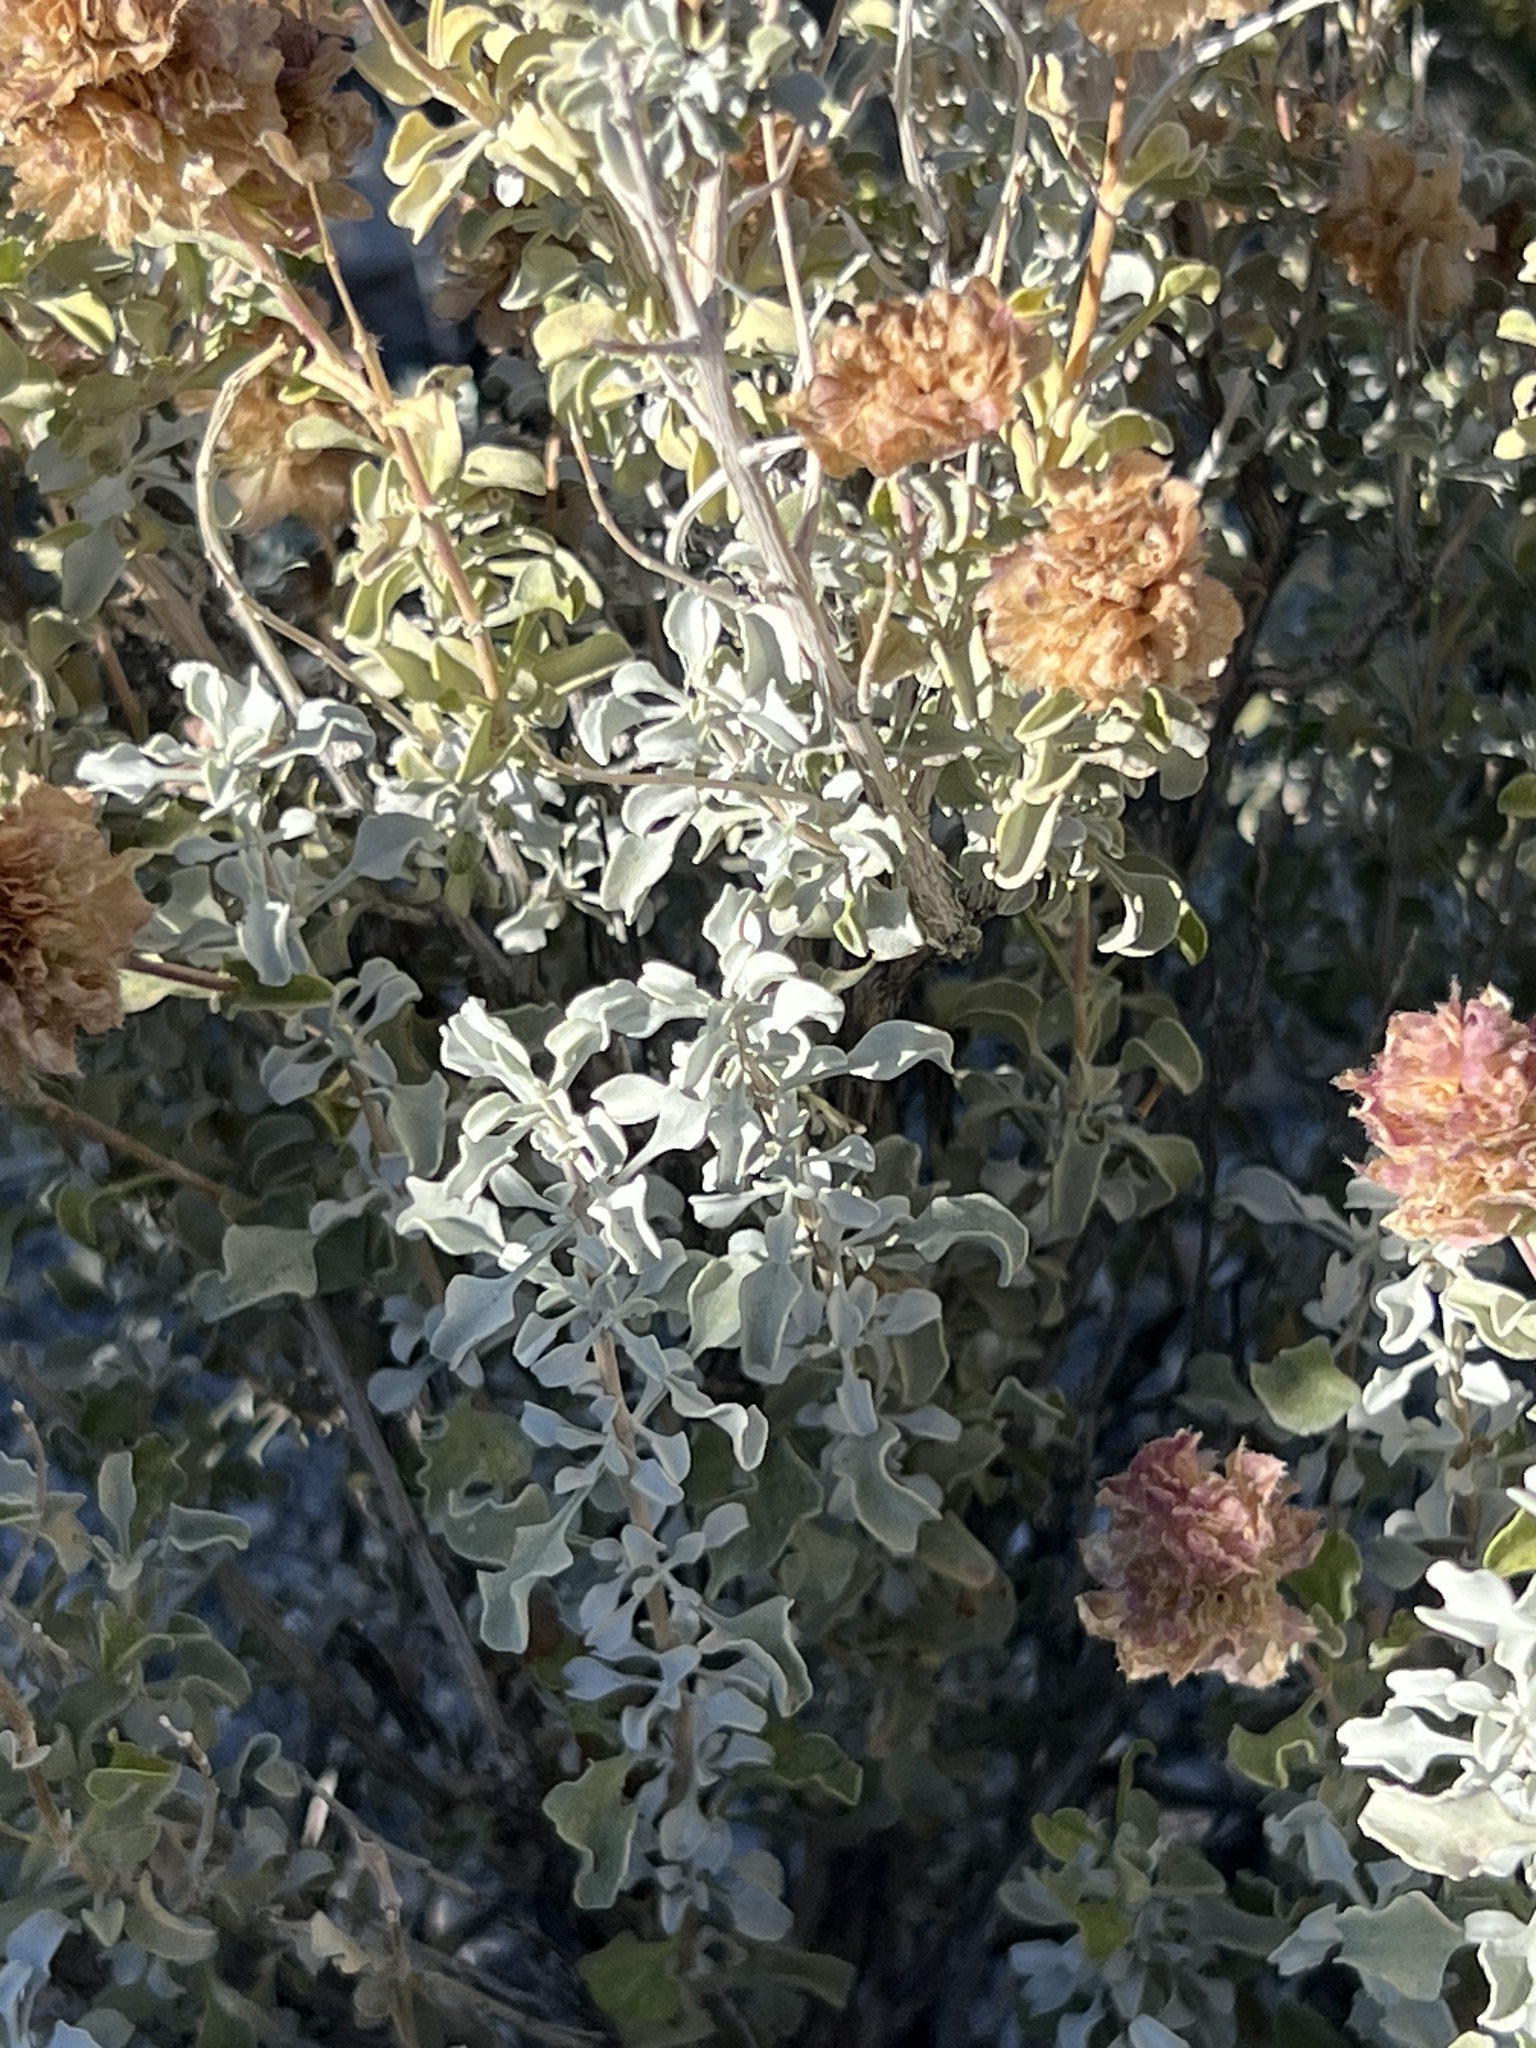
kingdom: Plantae
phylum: Tracheophyta
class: Magnoliopsida
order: Lamiales
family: Lamiaceae
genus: Salvia
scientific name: Salvia dorrii
